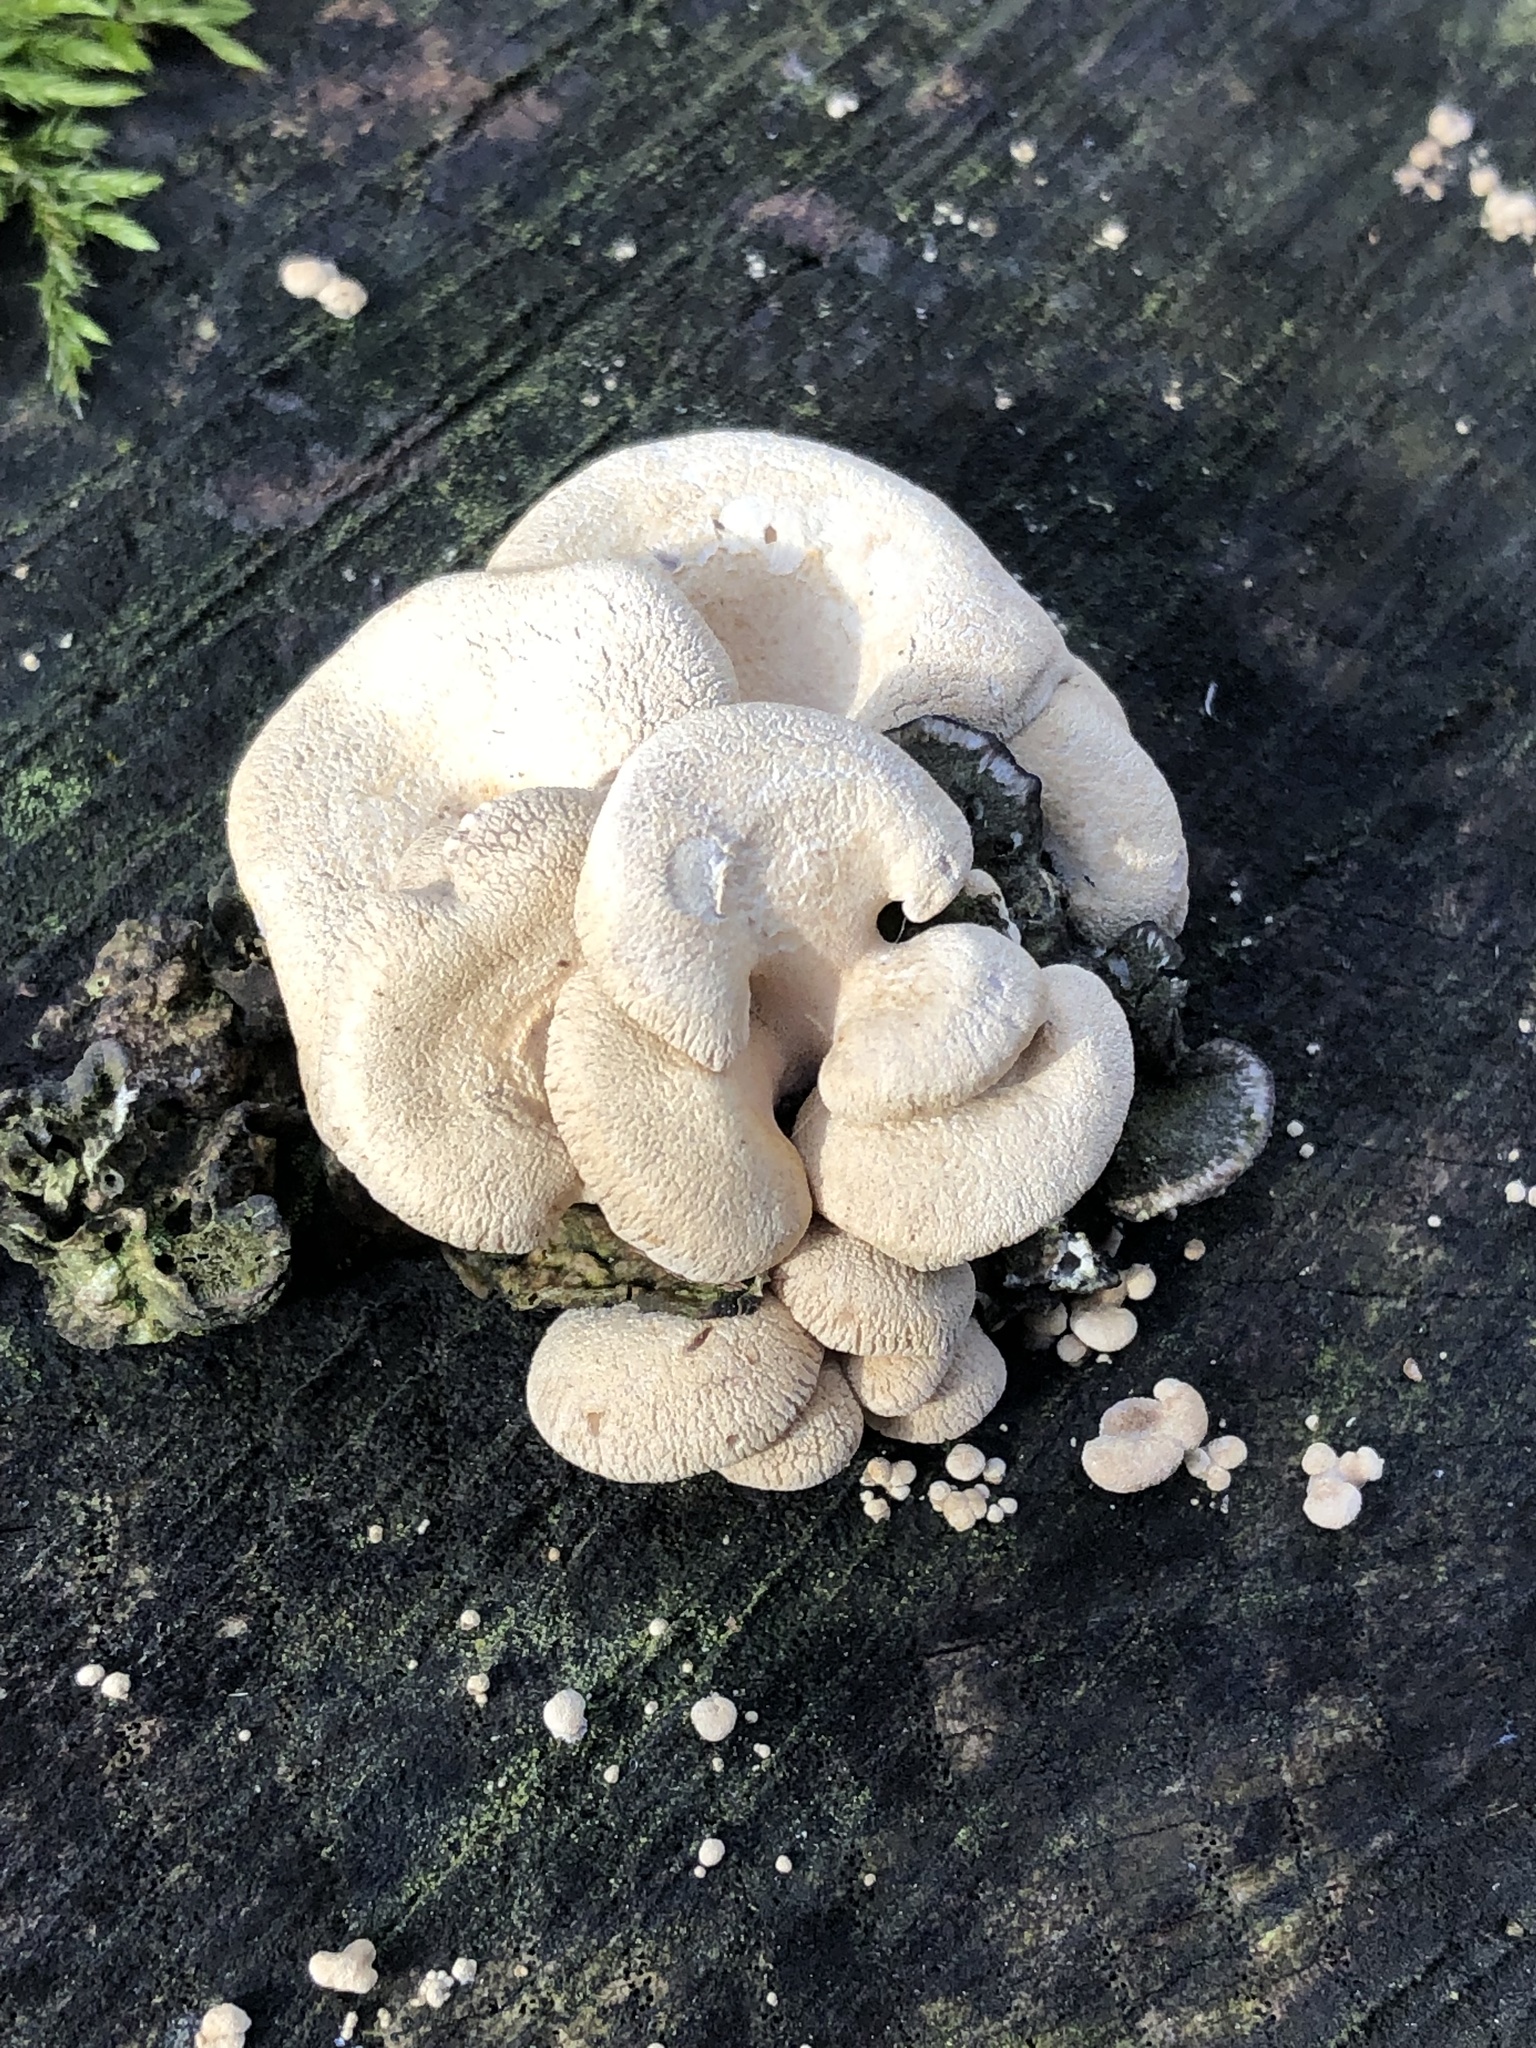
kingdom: Fungi
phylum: Basidiomycota
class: Agaricomycetes
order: Agaricales
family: Mycenaceae
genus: Panellus
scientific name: Panellus stipticus
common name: Bitter oysterling
